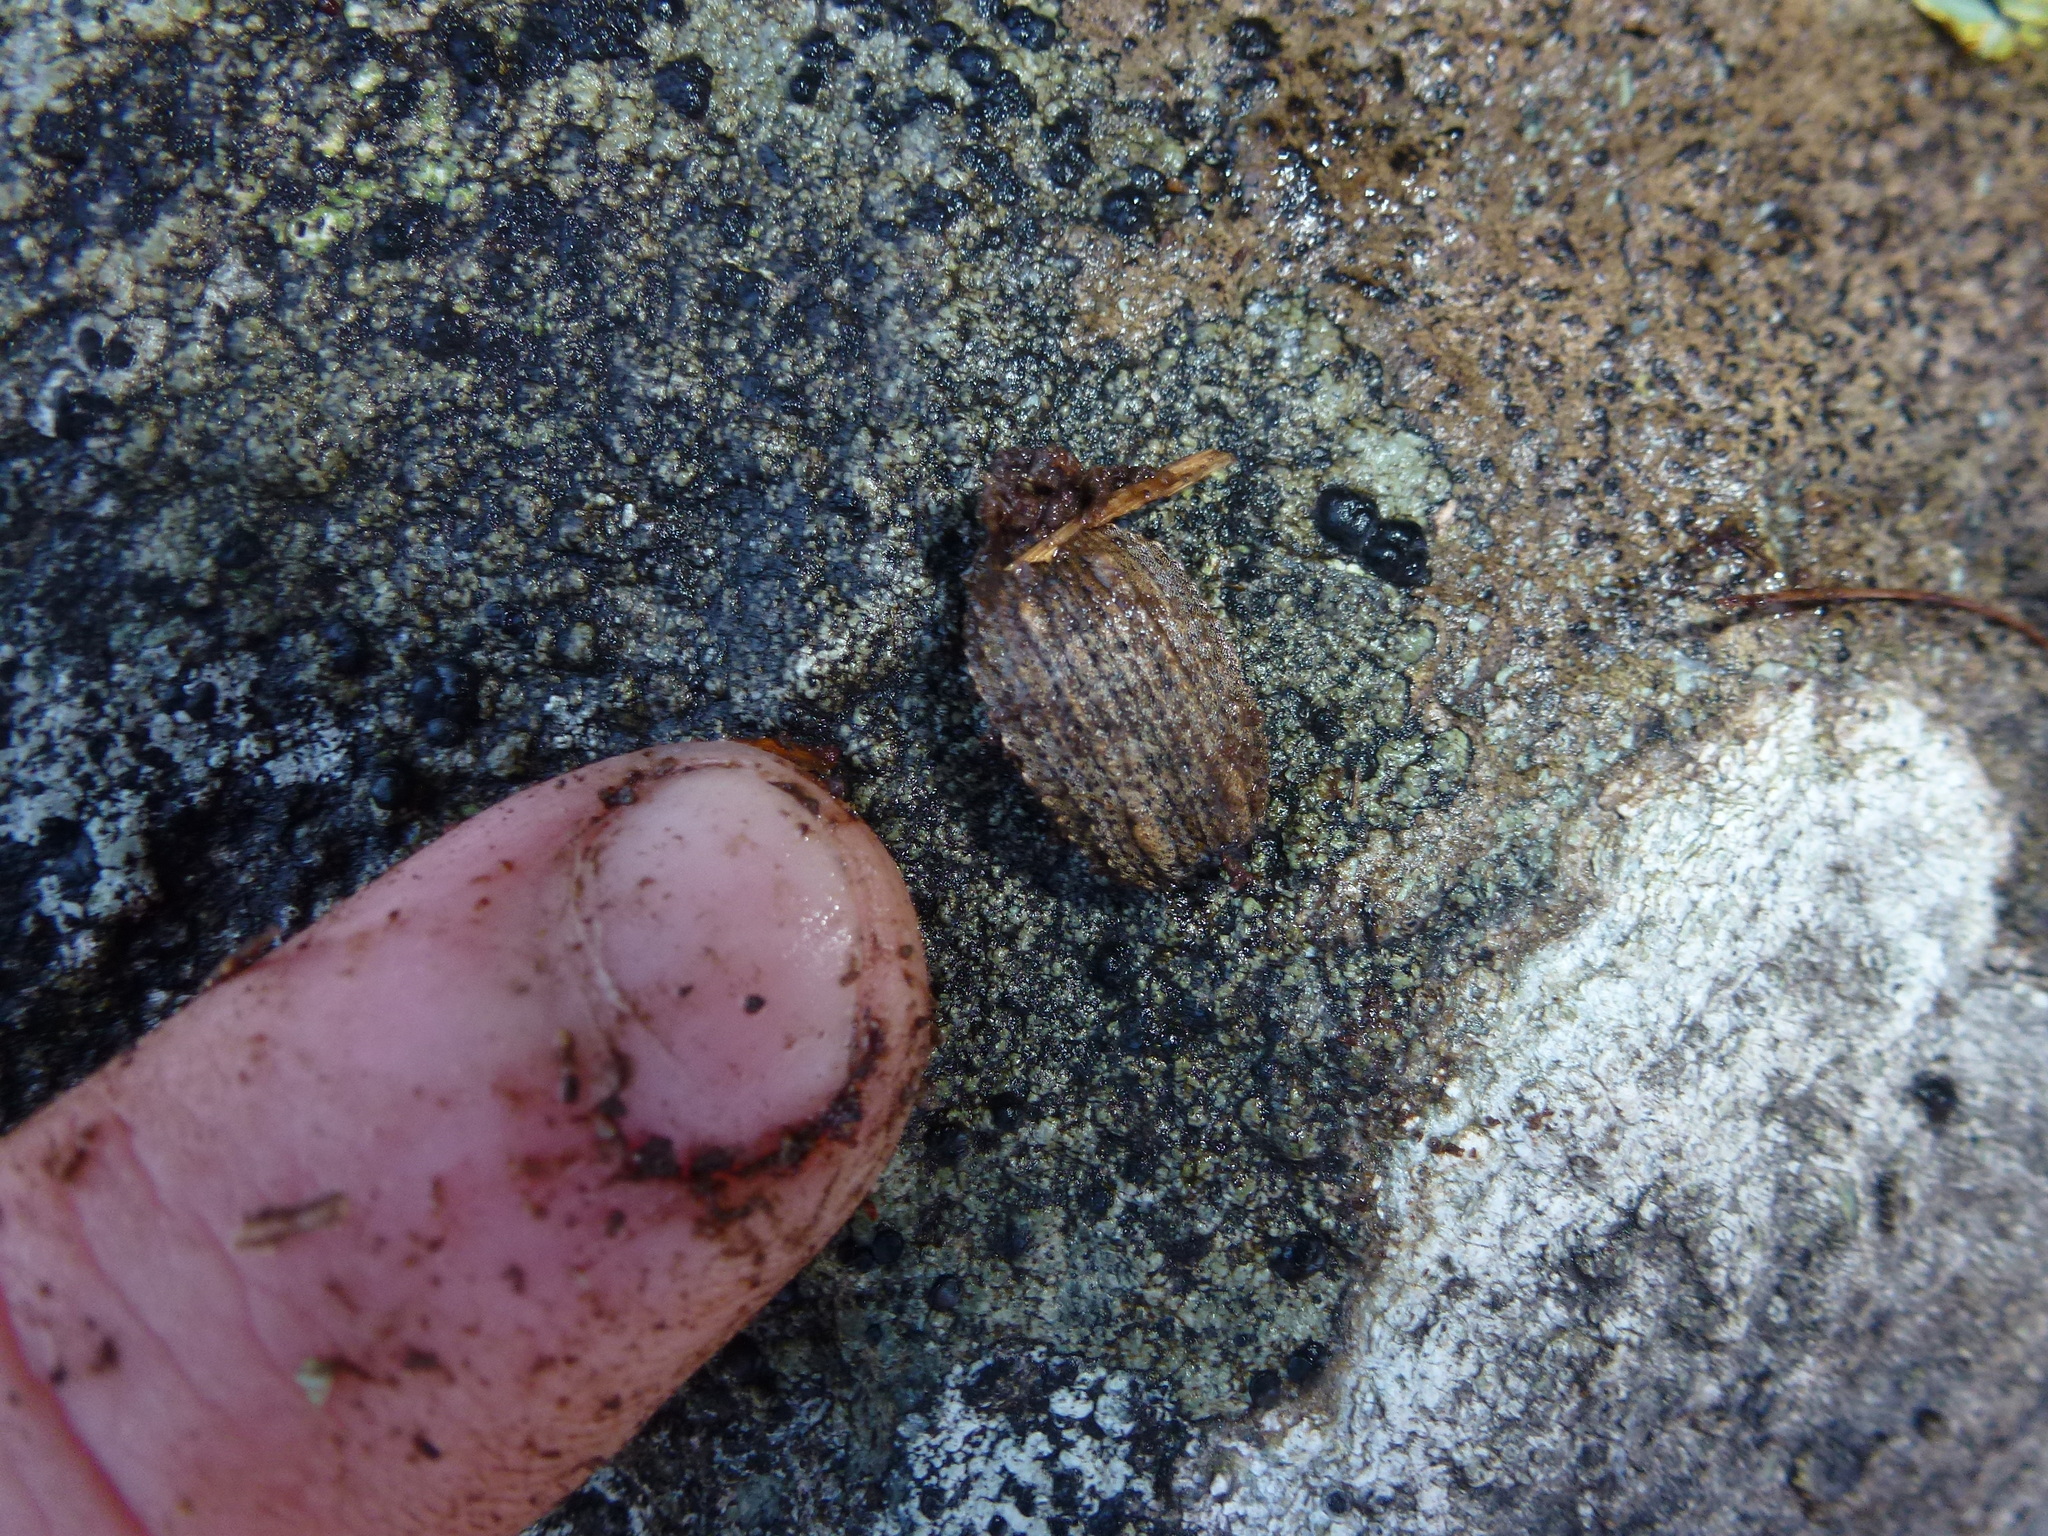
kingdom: Animalia
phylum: Arthropoda
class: Insecta
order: Coleoptera
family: Curculionidae
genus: Anagotus
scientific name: Anagotus fairburni
